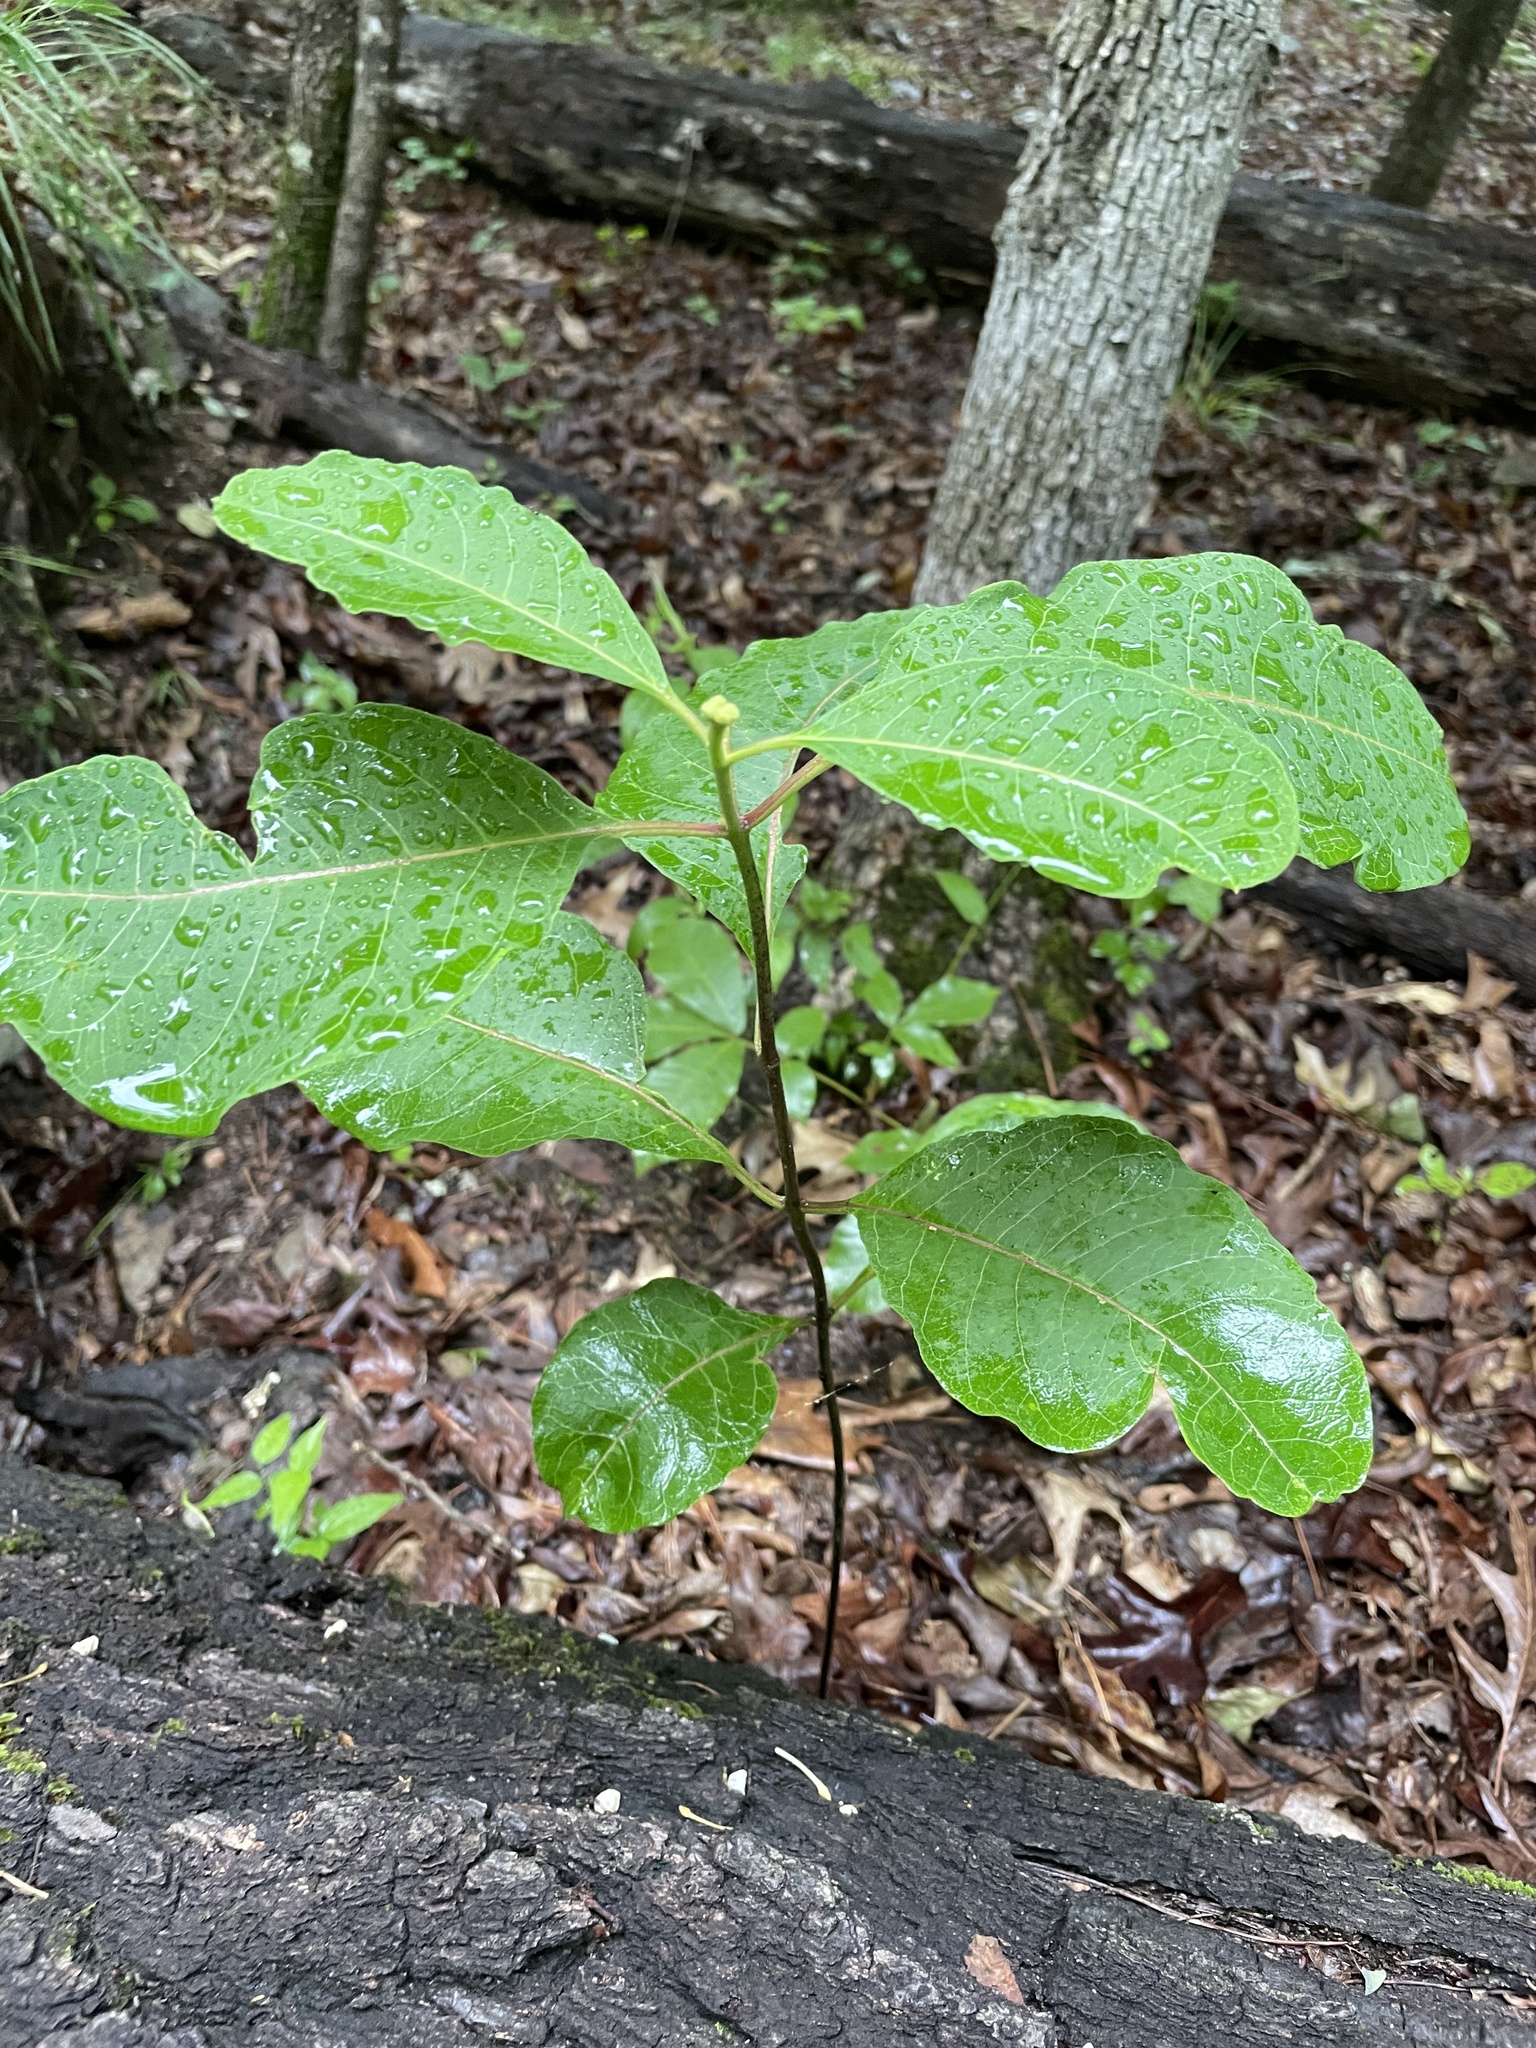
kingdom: Plantae
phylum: Tracheophyta
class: Magnoliopsida
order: Gentianales
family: Apocynaceae
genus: Asclepias
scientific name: Asclepias variegata
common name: Variegated milkweed
